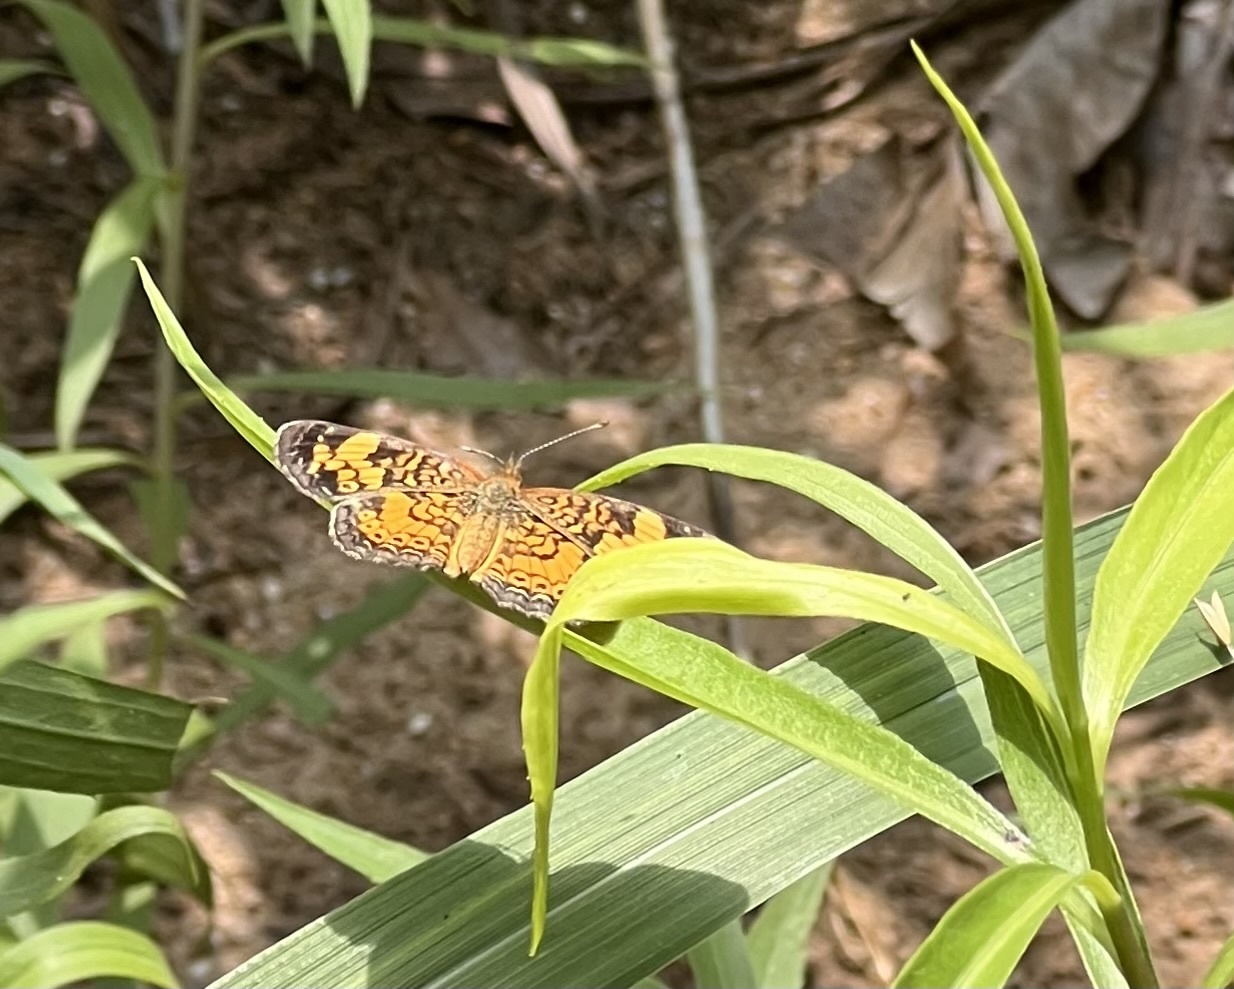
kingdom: Animalia
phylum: Arthropoda
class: Insecta
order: Lepidoptera
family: Nymphalidae
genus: Phyciodes
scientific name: Phyciodes tharos
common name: Pearl crescent
